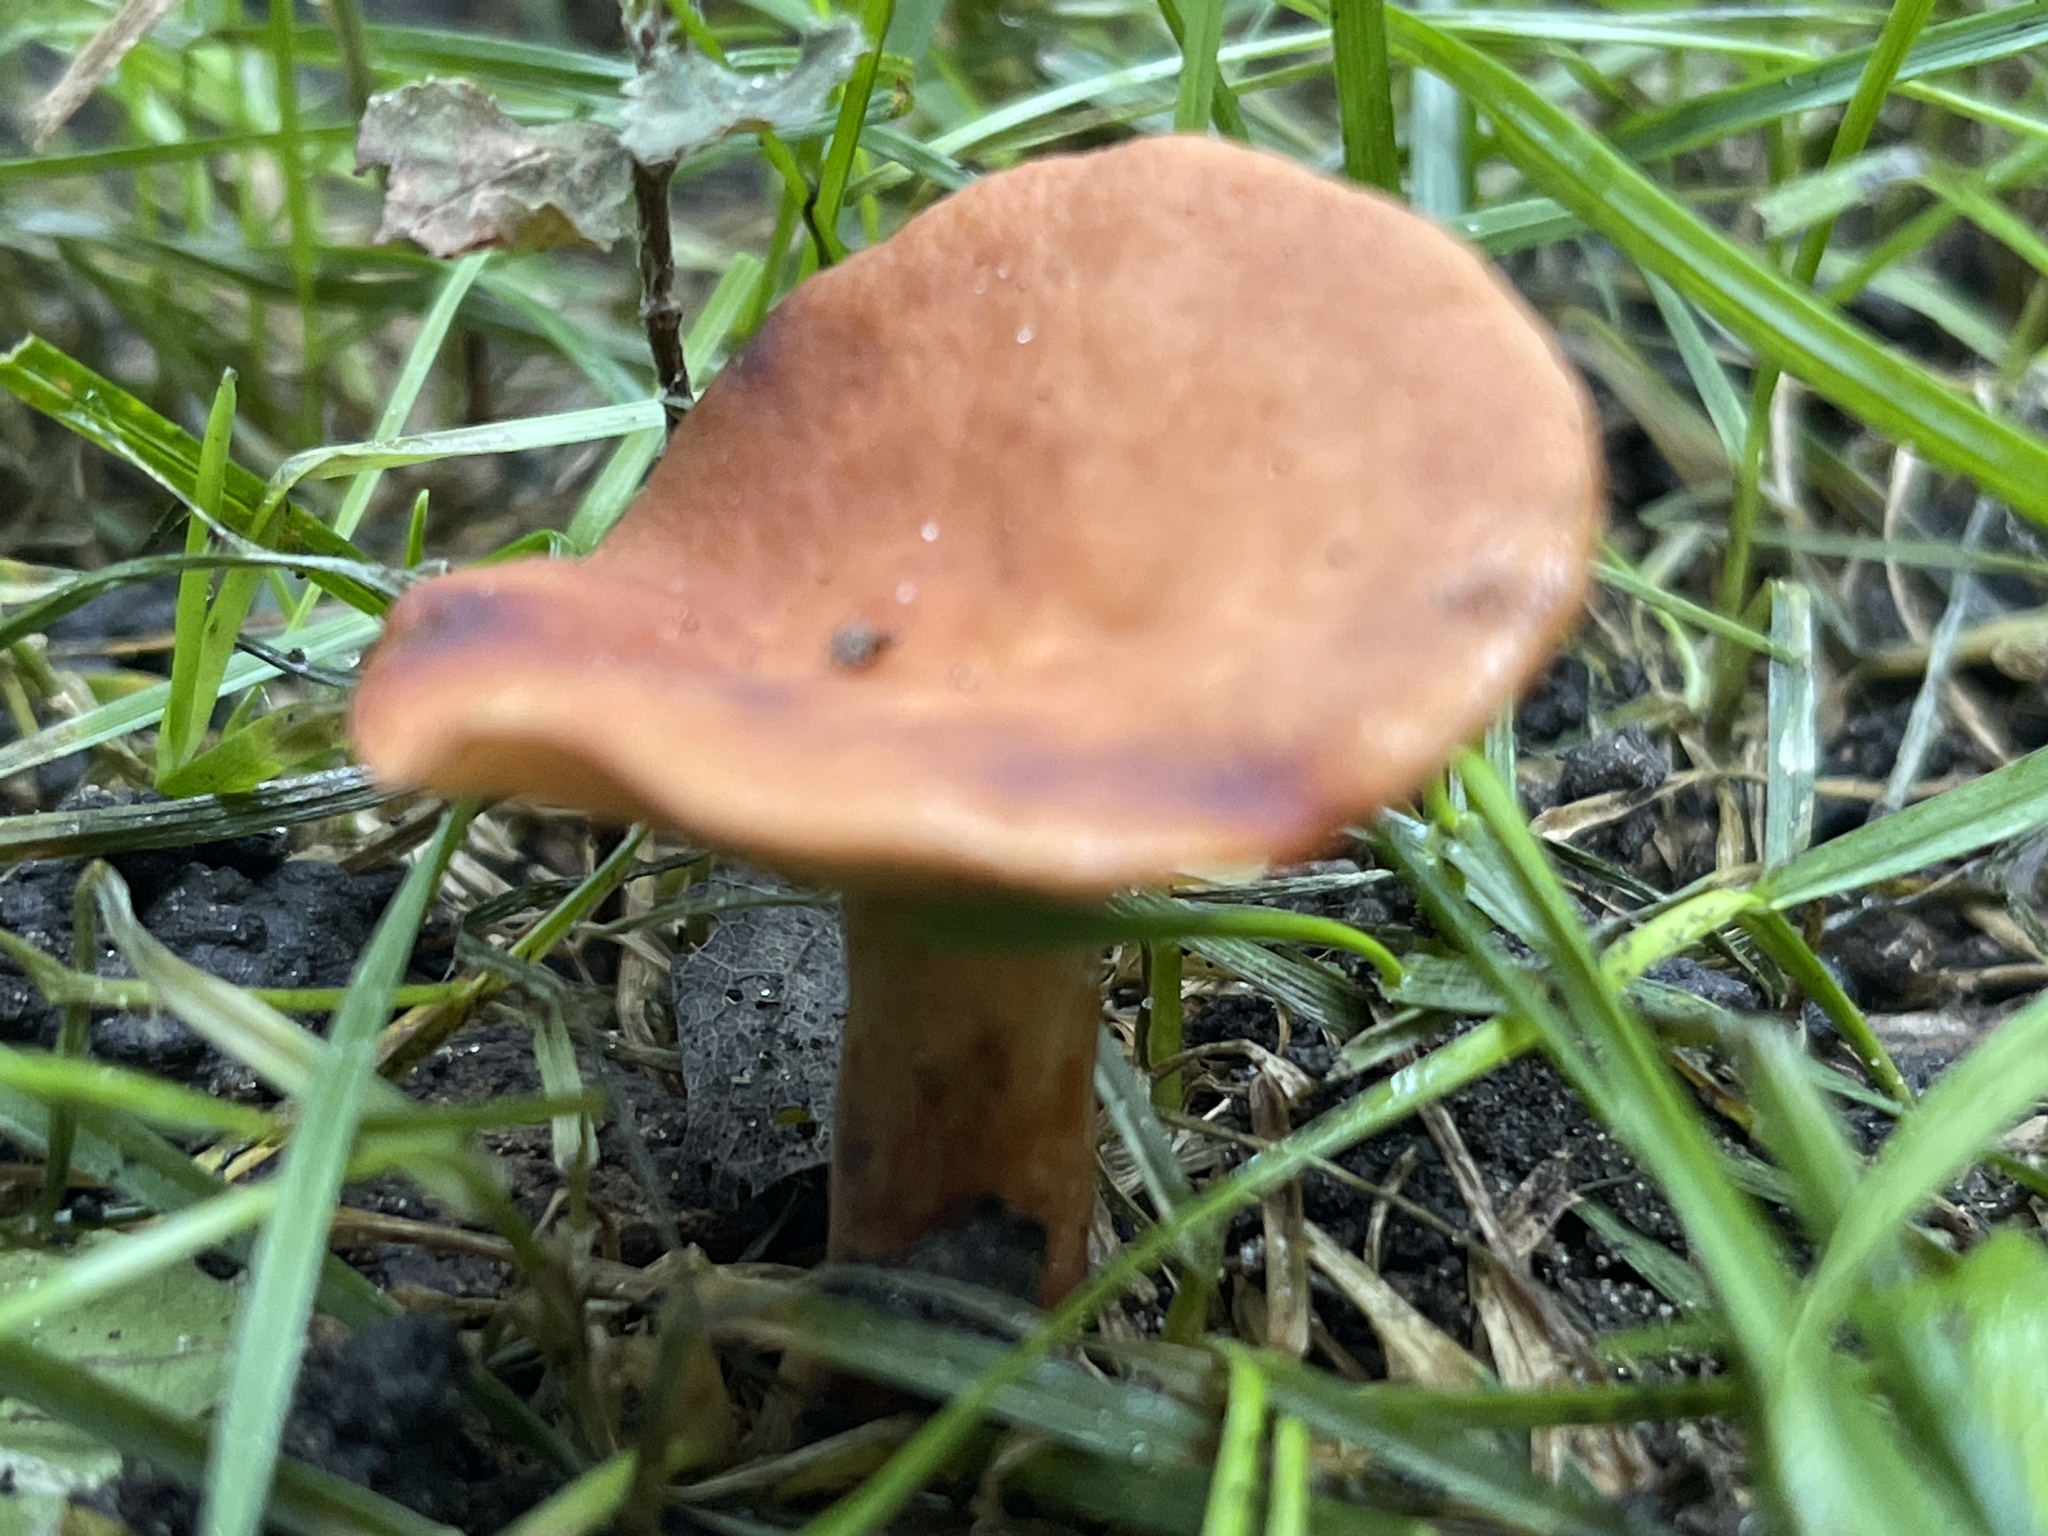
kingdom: Fungi
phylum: Basidiomycota
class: Agaricomycetes
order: Russulales
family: Russulaceae
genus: Lactarius
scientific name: Lactarius camphoratus
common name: Curry milkcap
